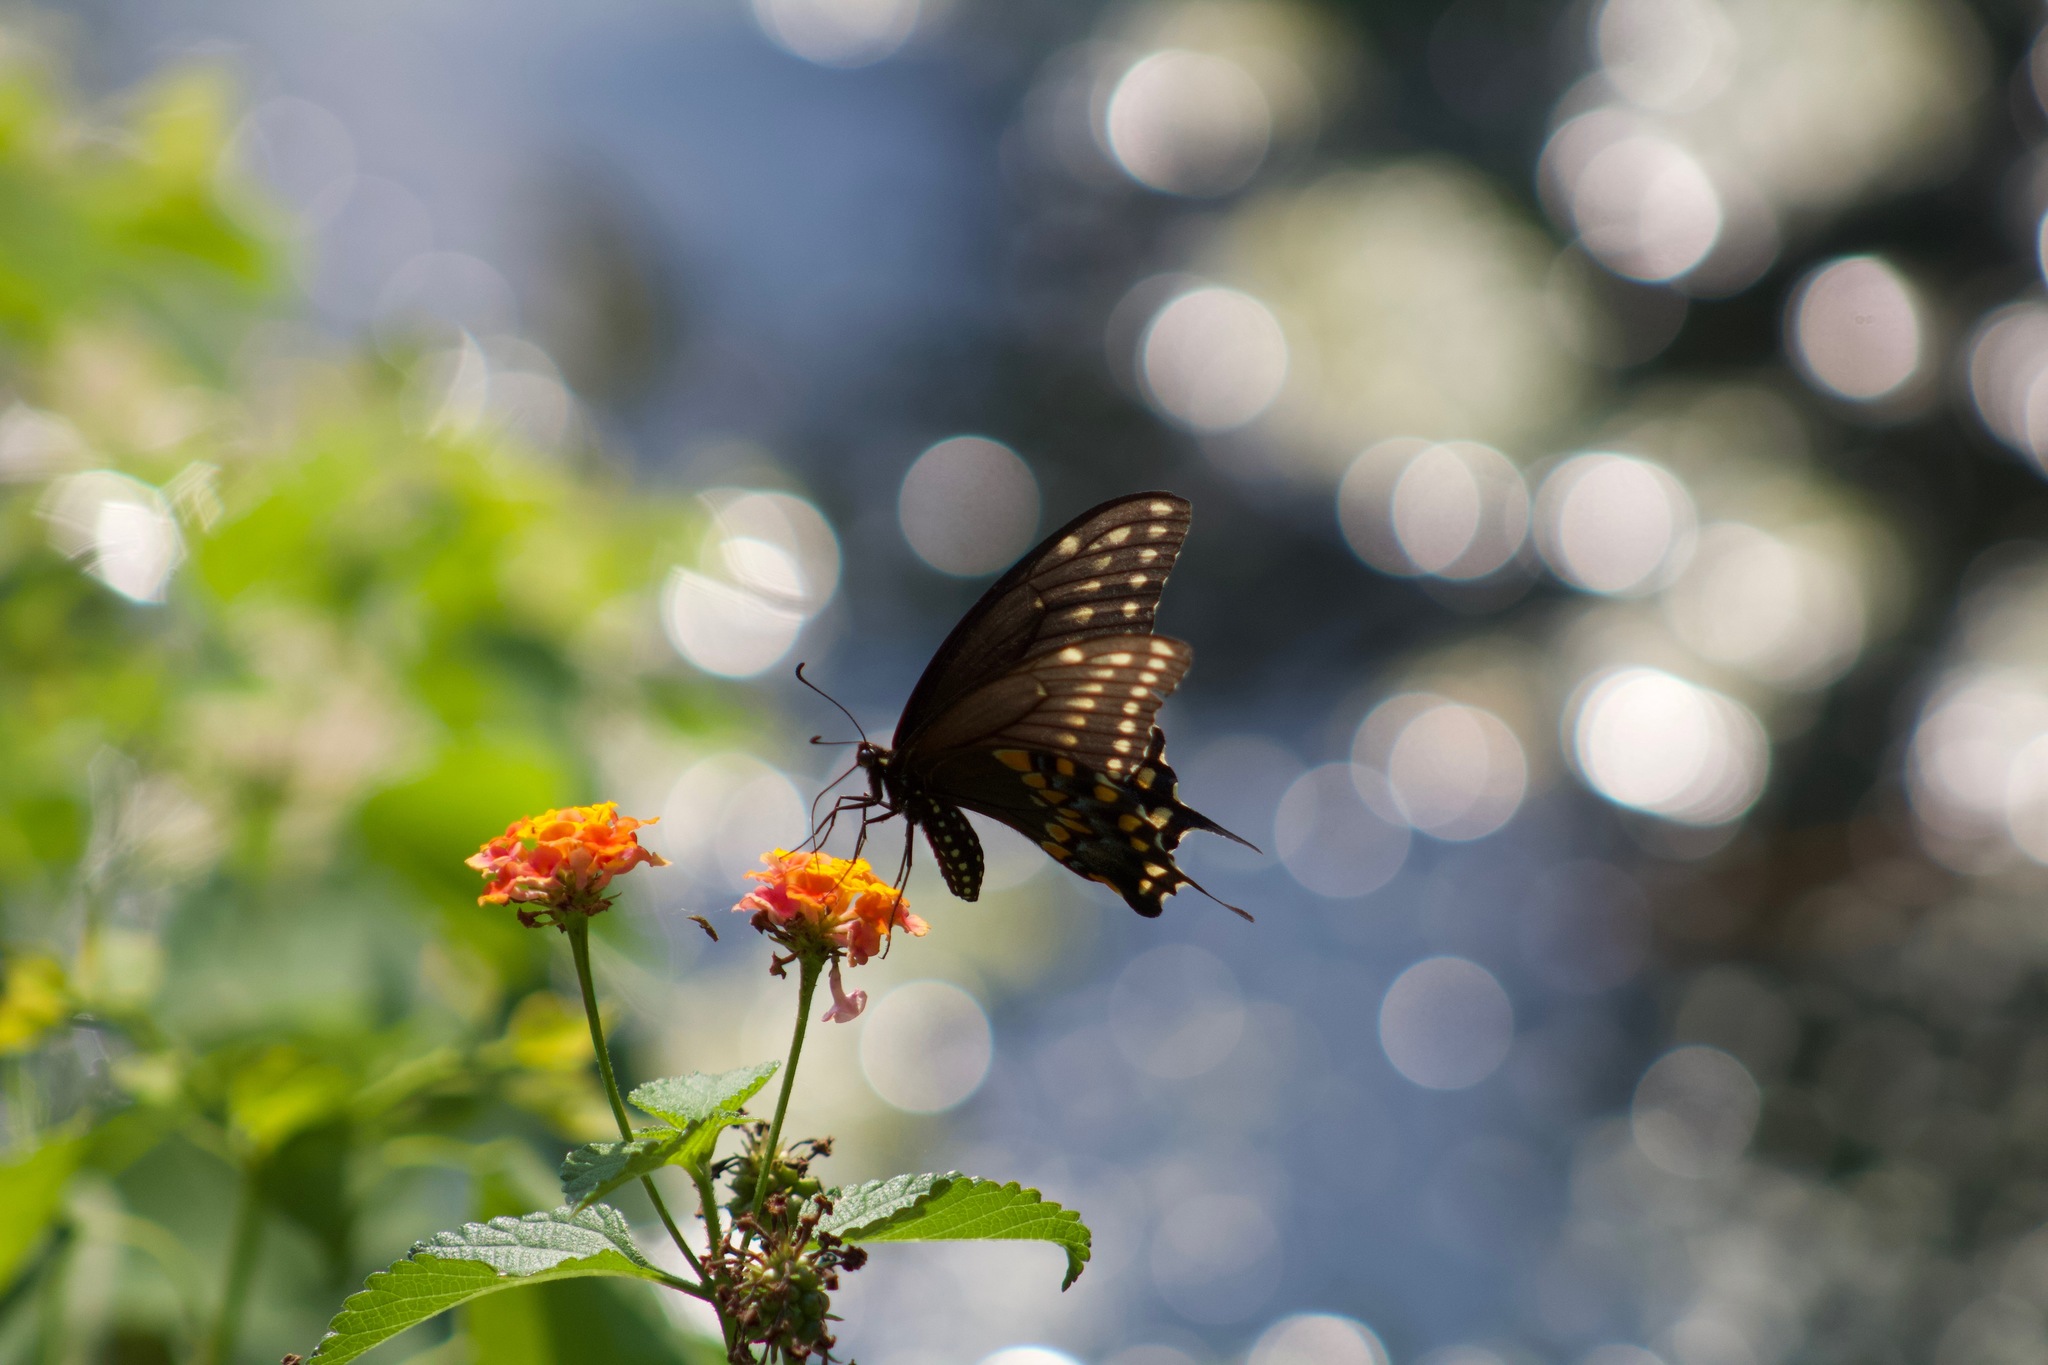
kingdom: Animalia
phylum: Arthropoda
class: Insecta
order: Lepidoptera
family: Papilionidae
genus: Papilio
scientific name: Papilio polyxenes
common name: Black swallowtail
